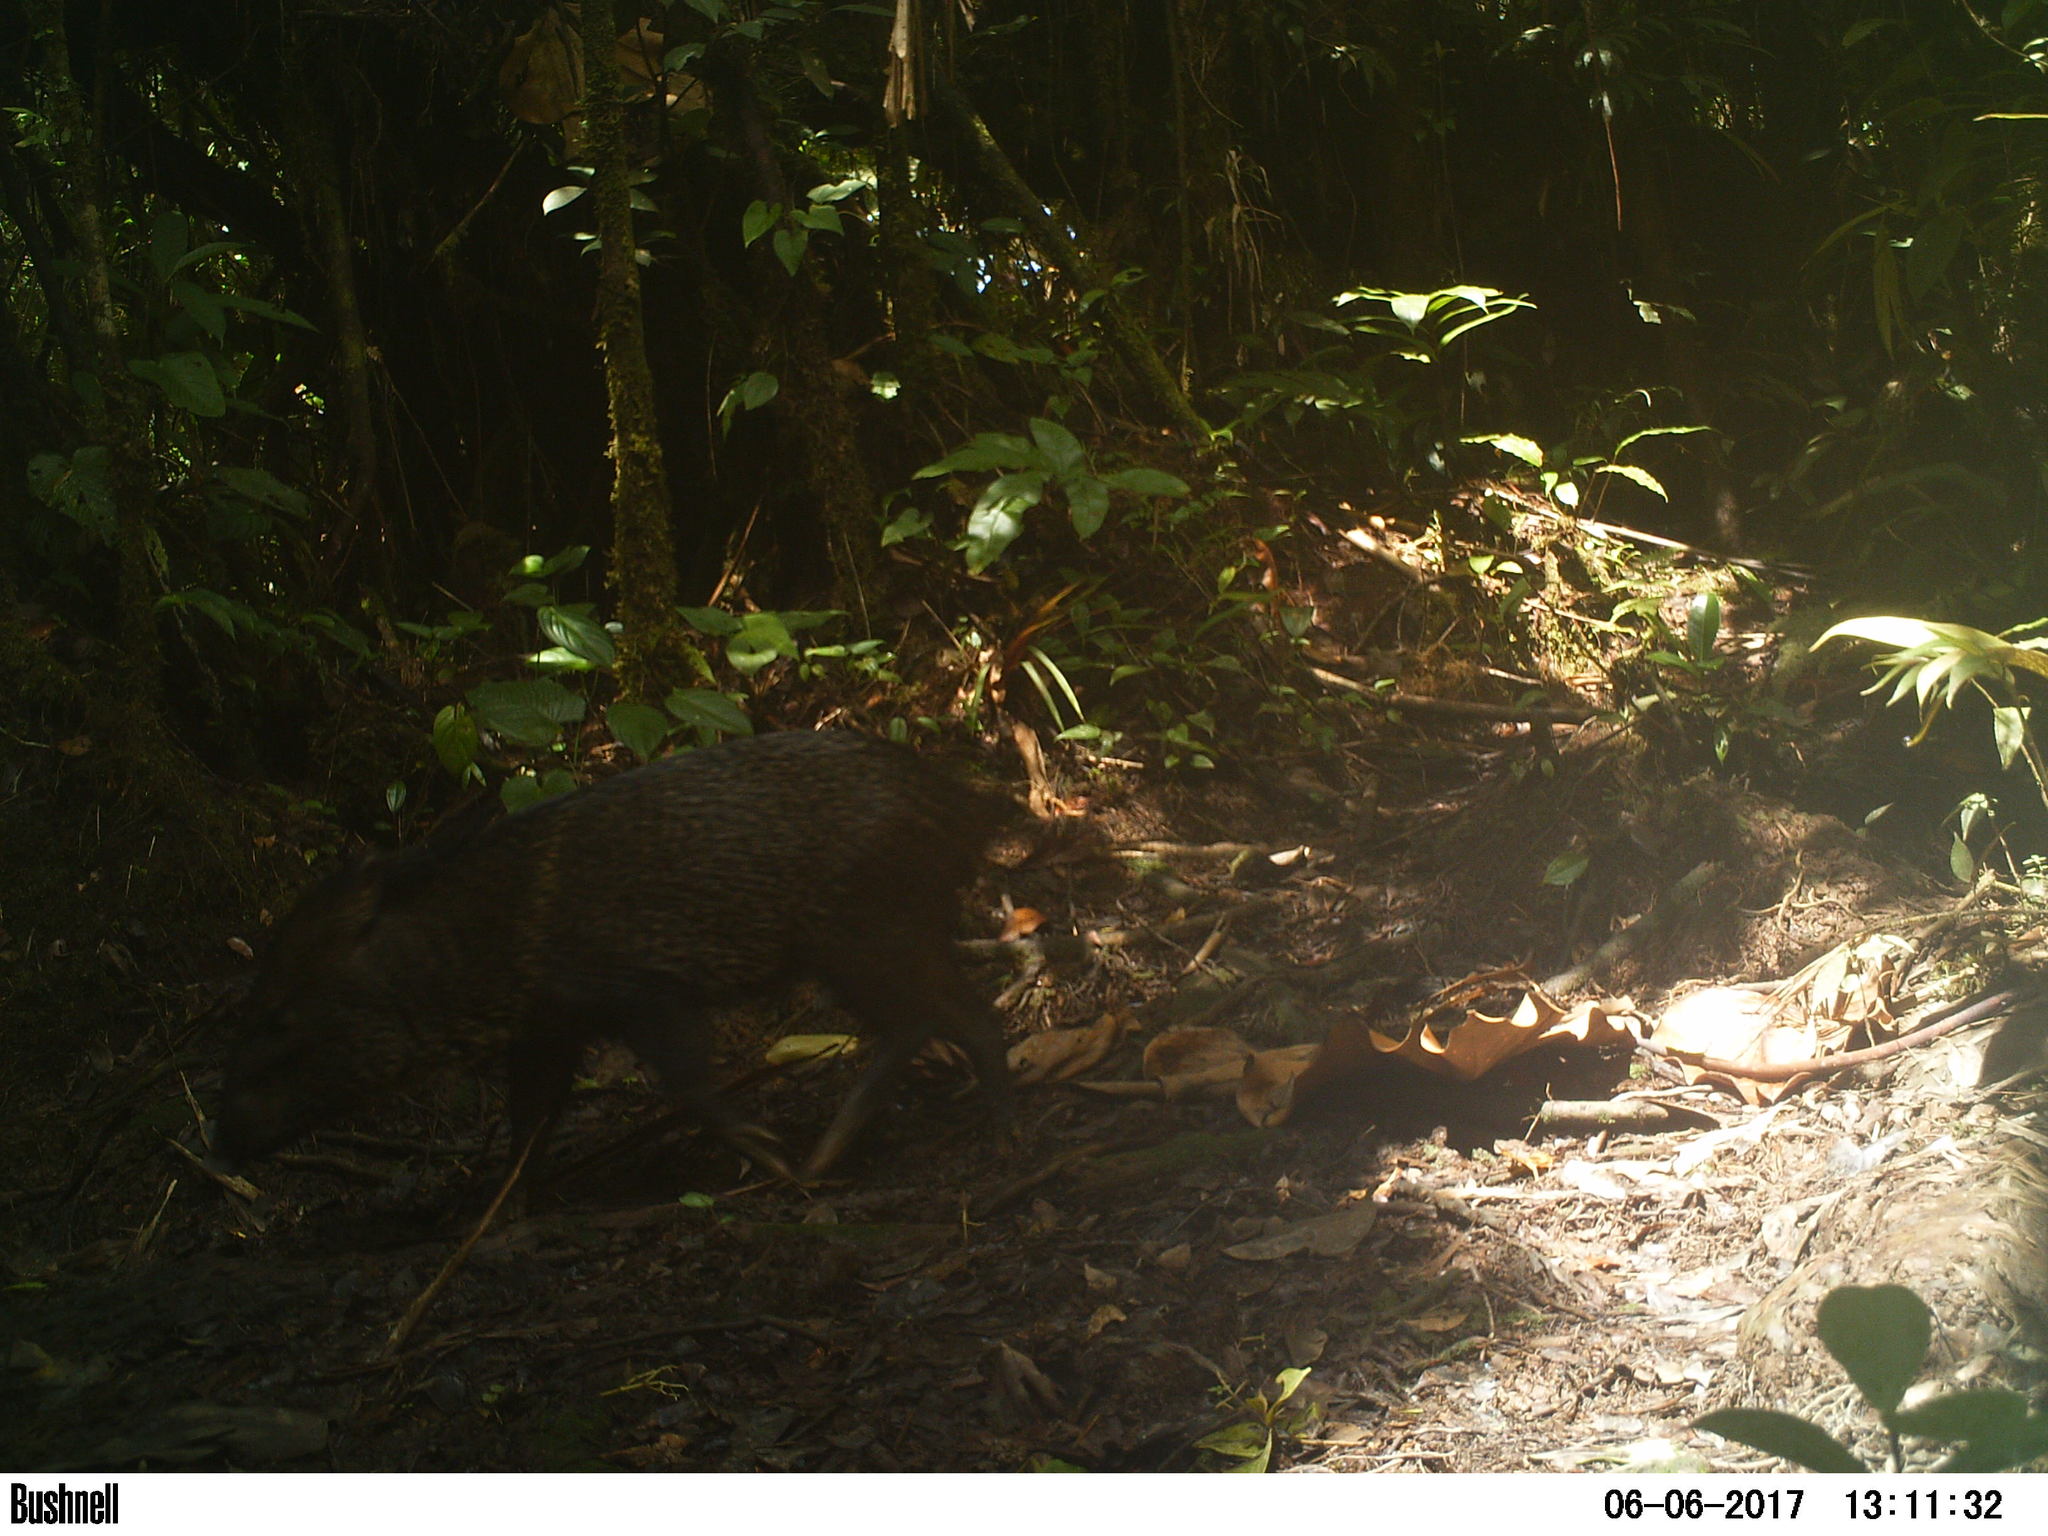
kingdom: Animalia
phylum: Chordata
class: Mammalia
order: Artiodactyla
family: Tayassuidae
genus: Pecari
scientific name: Pecari tajacu
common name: Collared peccary
